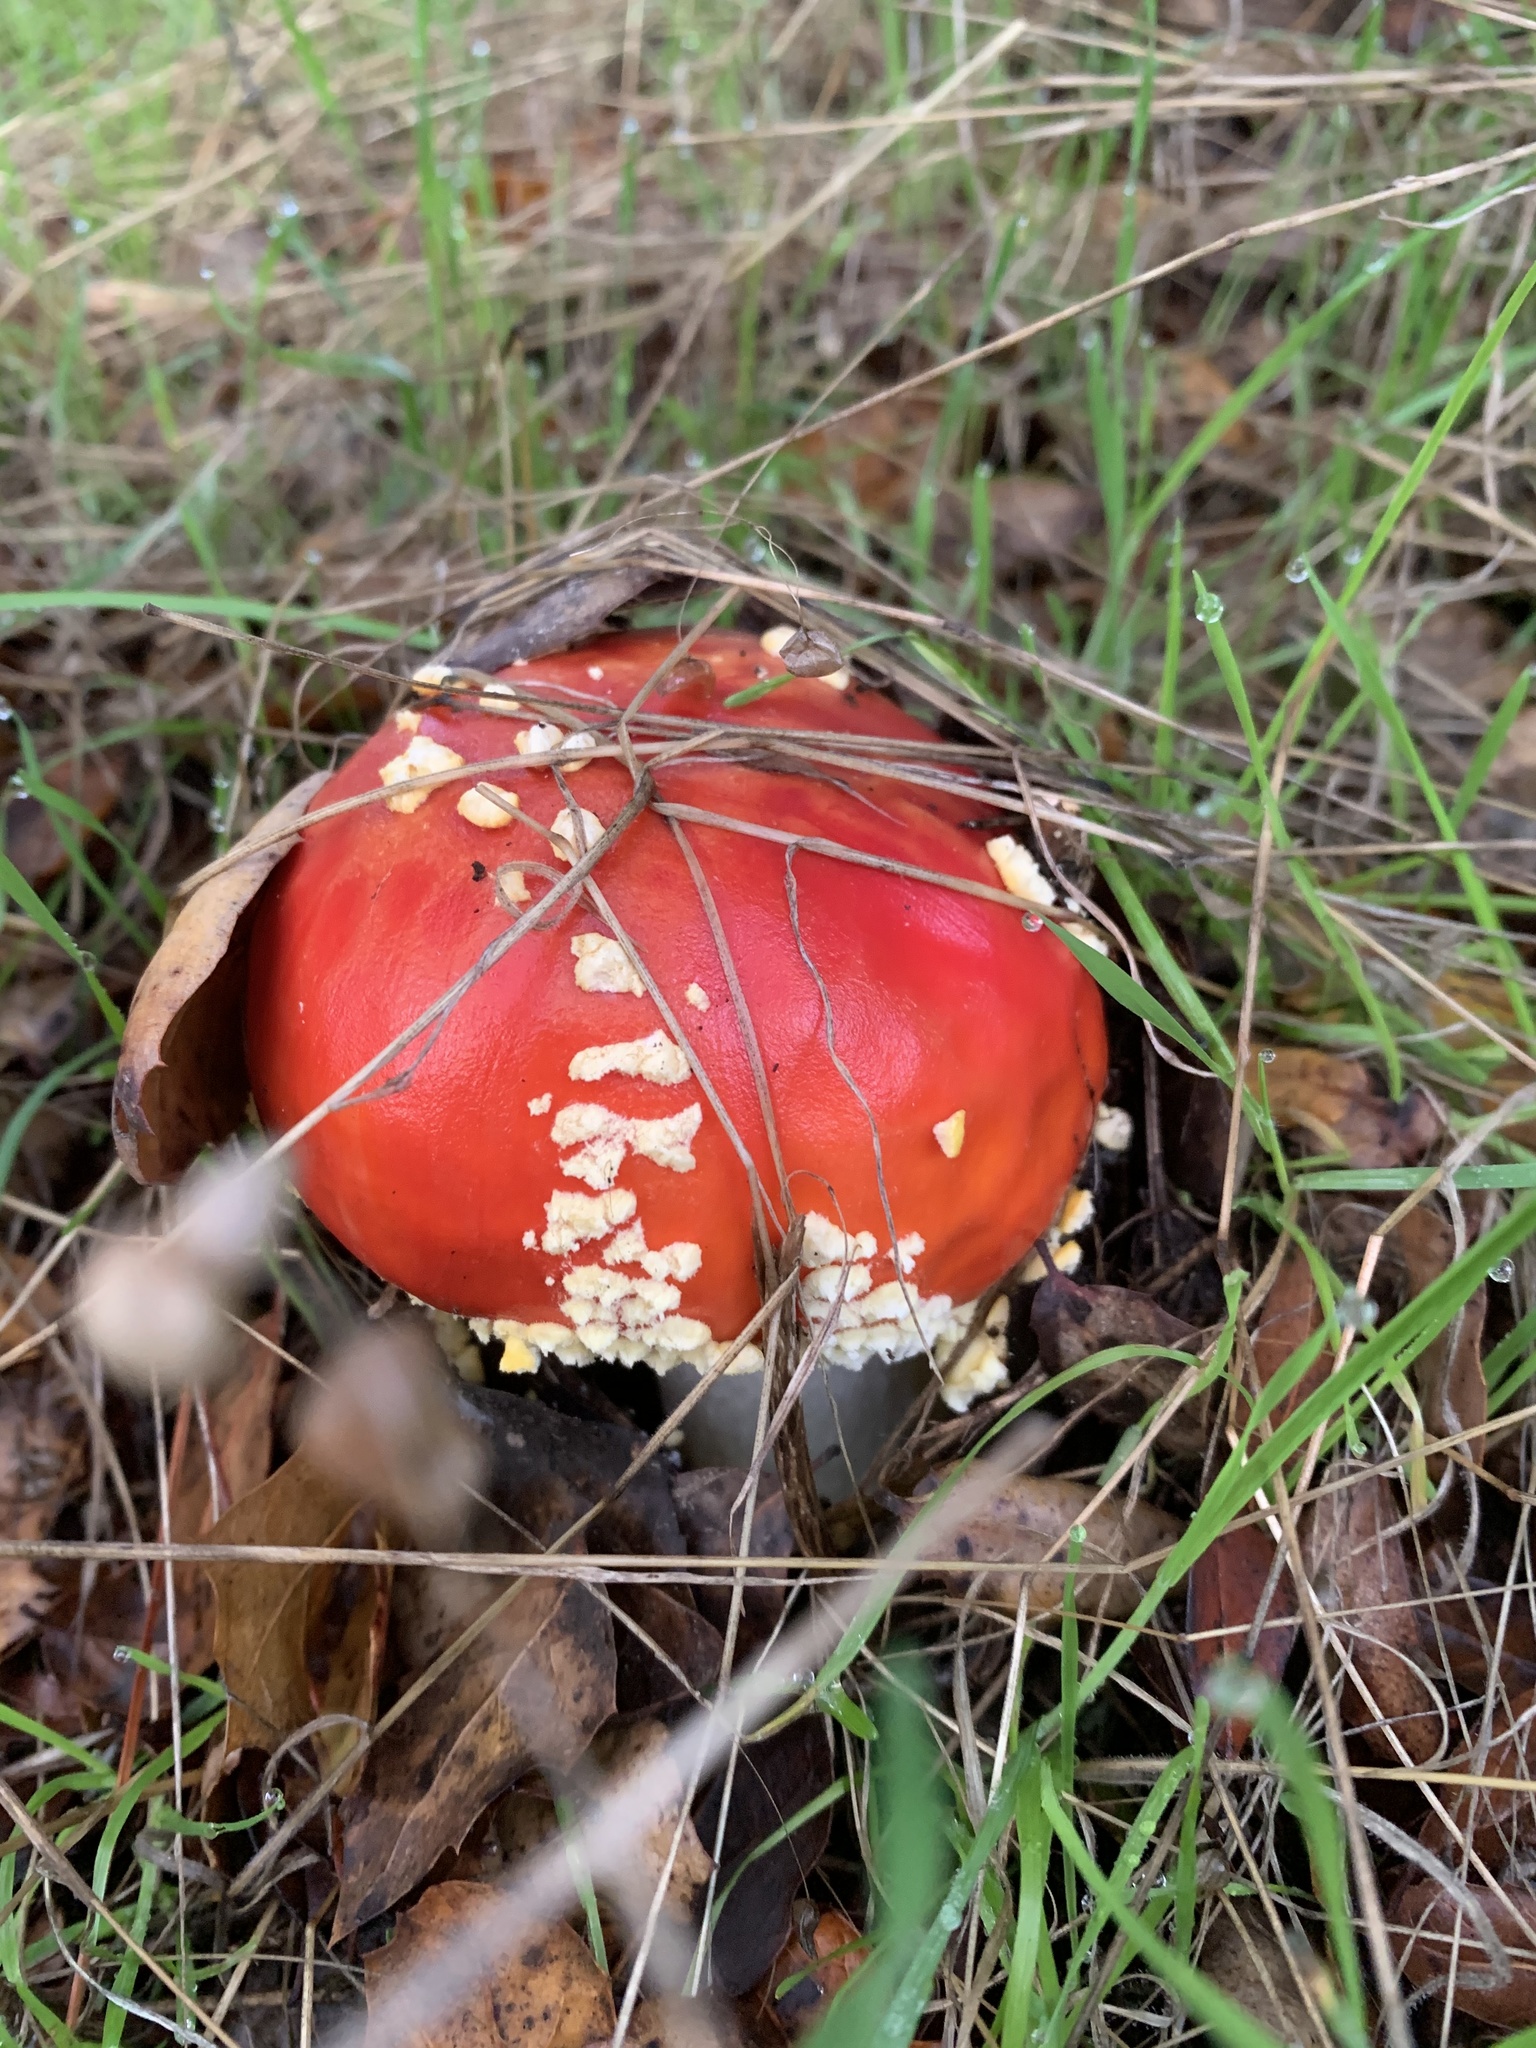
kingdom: Fungi
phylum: Basidiomycota
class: Agaricomycetes
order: Agaricales
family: Amanitaceae
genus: Amanita
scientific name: Amanita muscaria
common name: Fly agaric
